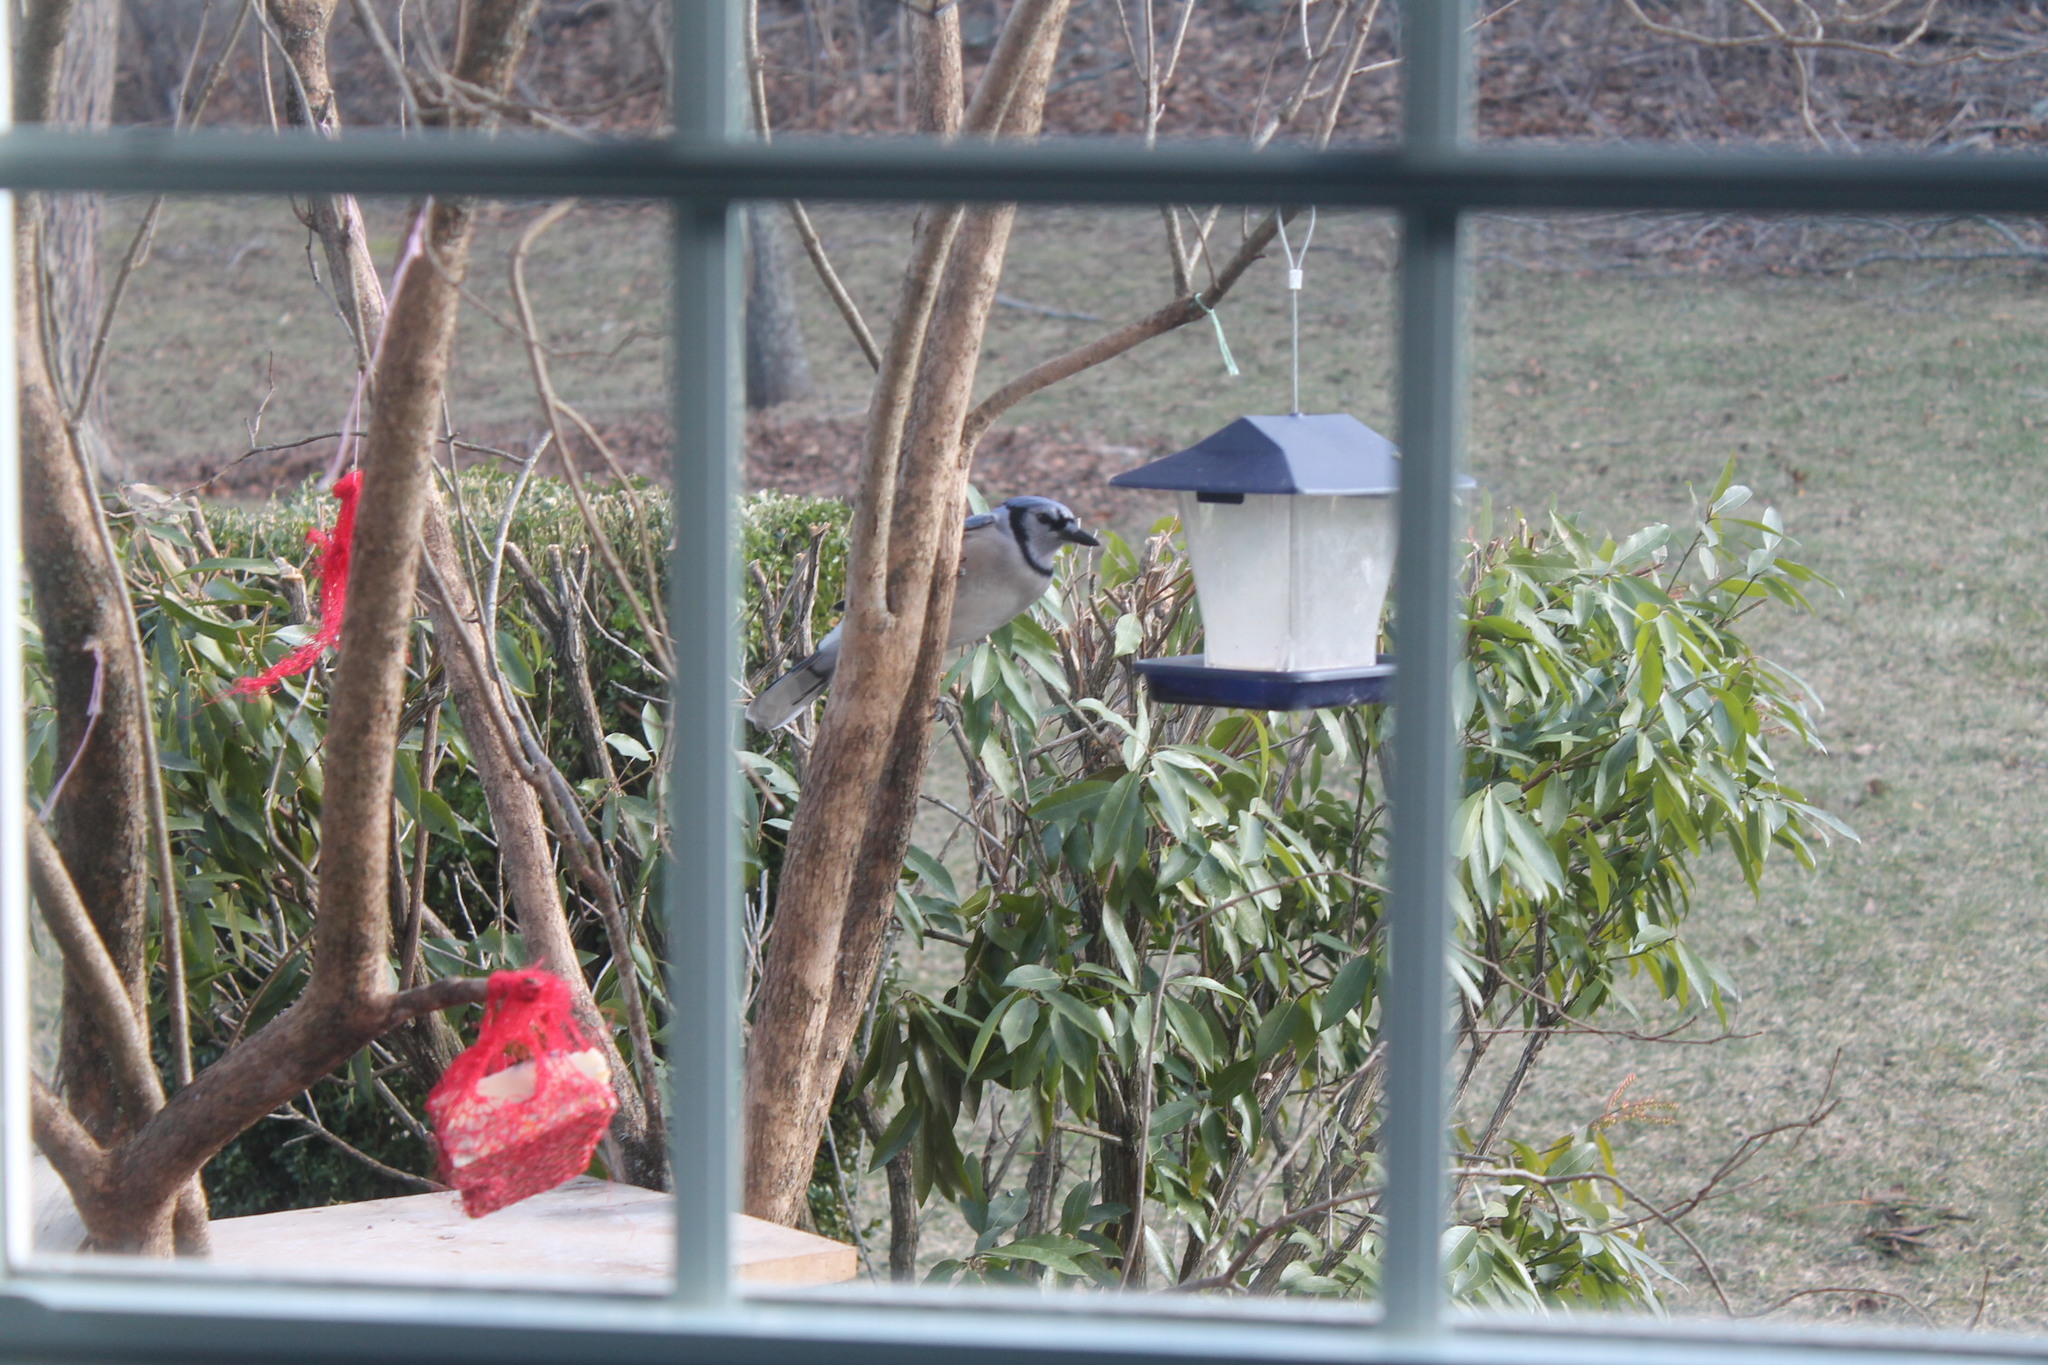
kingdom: Animalia
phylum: Chordata
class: Aves
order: Passeriformes
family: Corvidae
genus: Cyanocitta
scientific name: Cyanocitta cristata
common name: Blue jay
